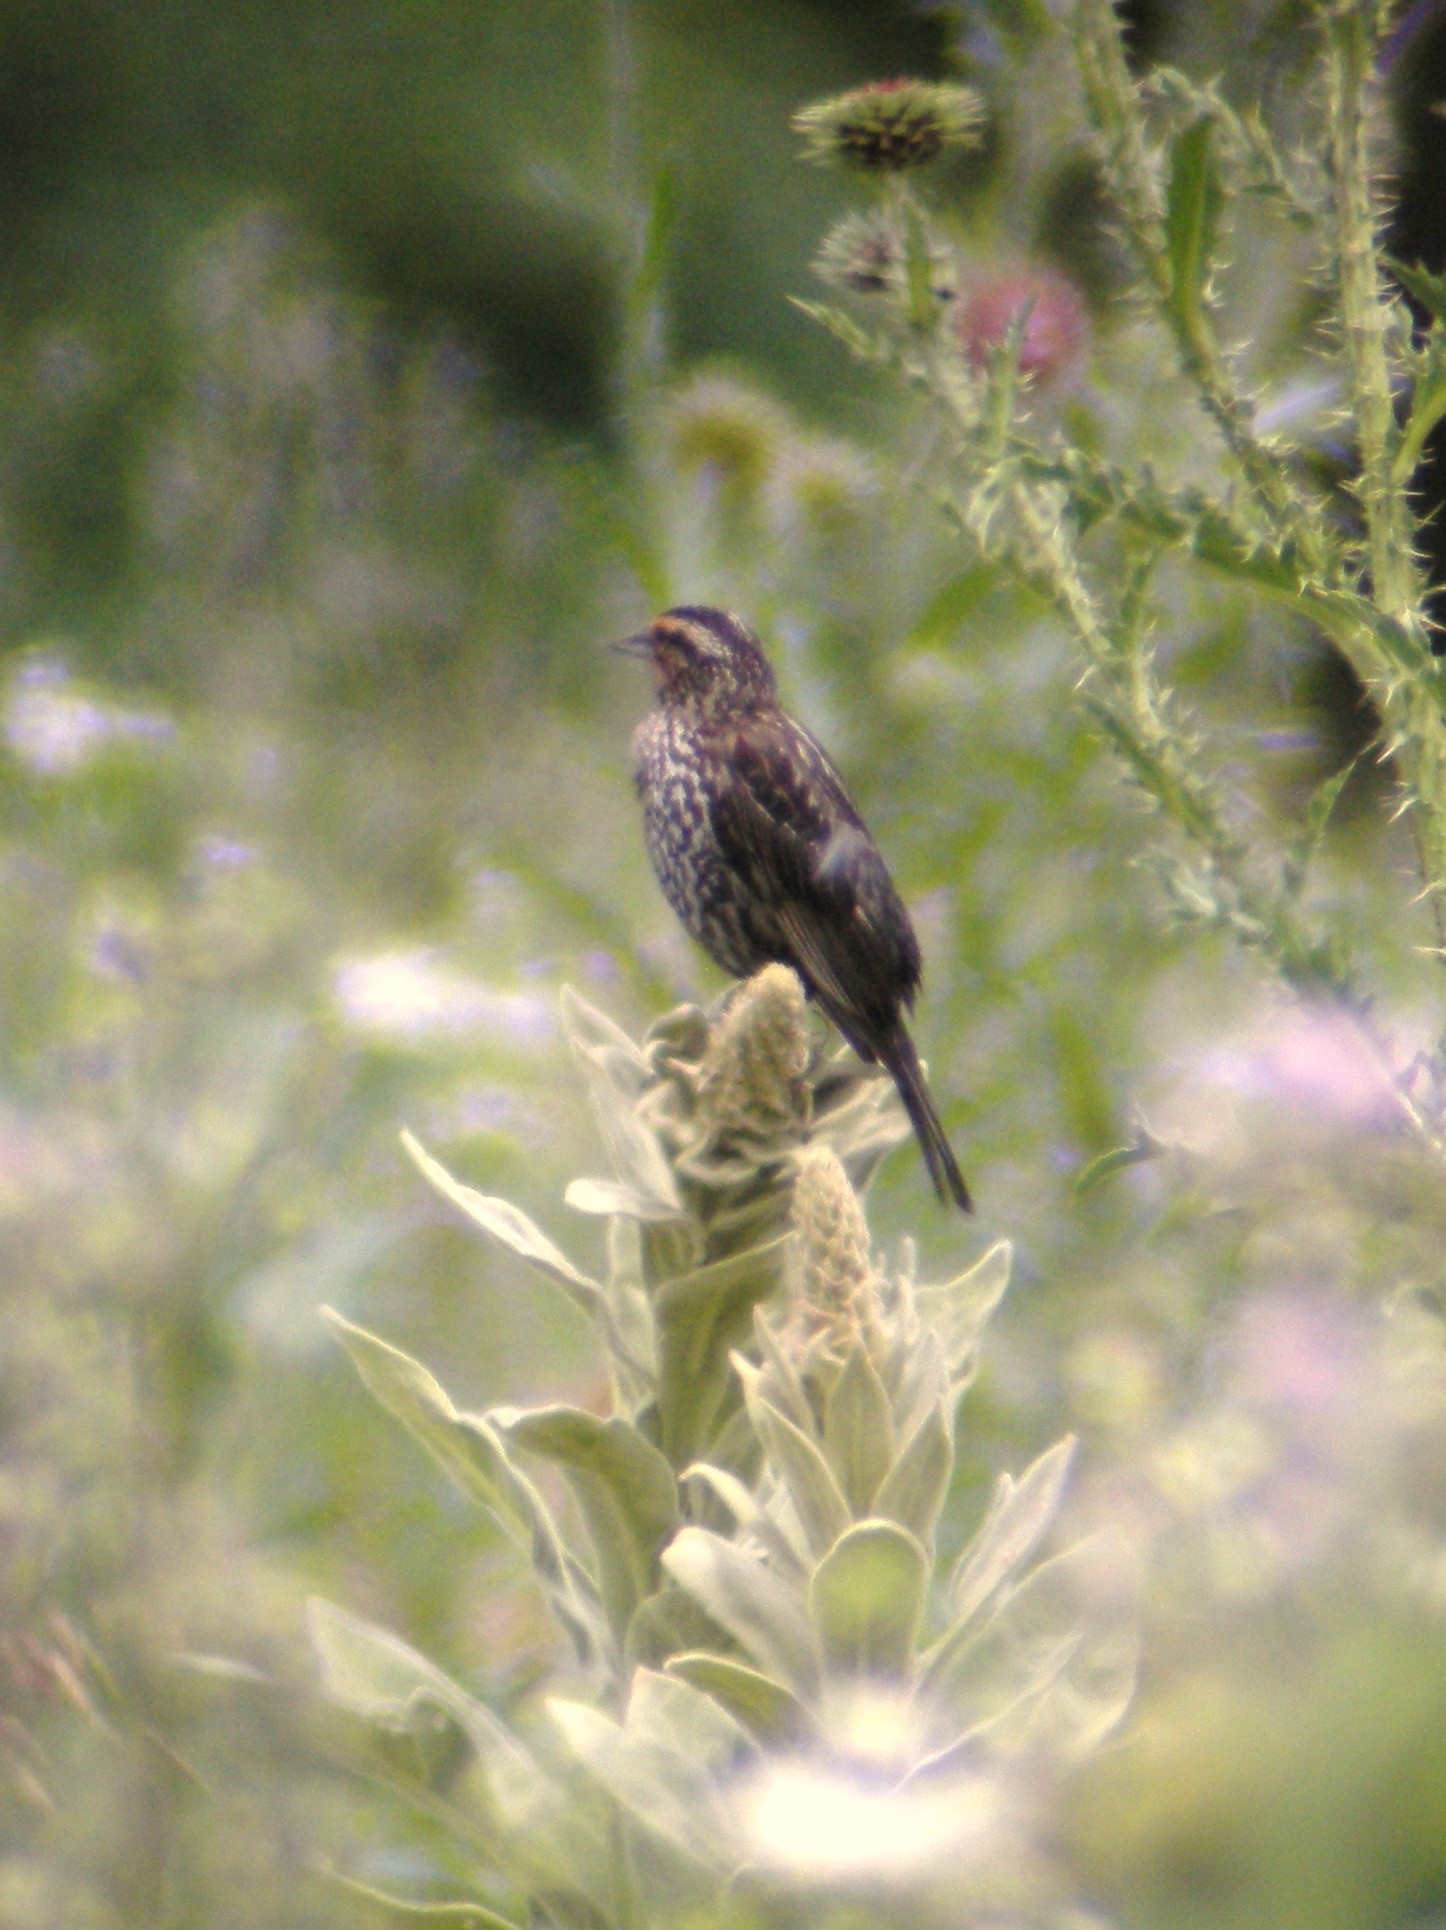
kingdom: Animalia
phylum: Chordata
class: Aves
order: Passeriformes
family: Icteridae
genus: Agelaius
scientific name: Agelaius phoeniceus
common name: Red-winged blackbird
